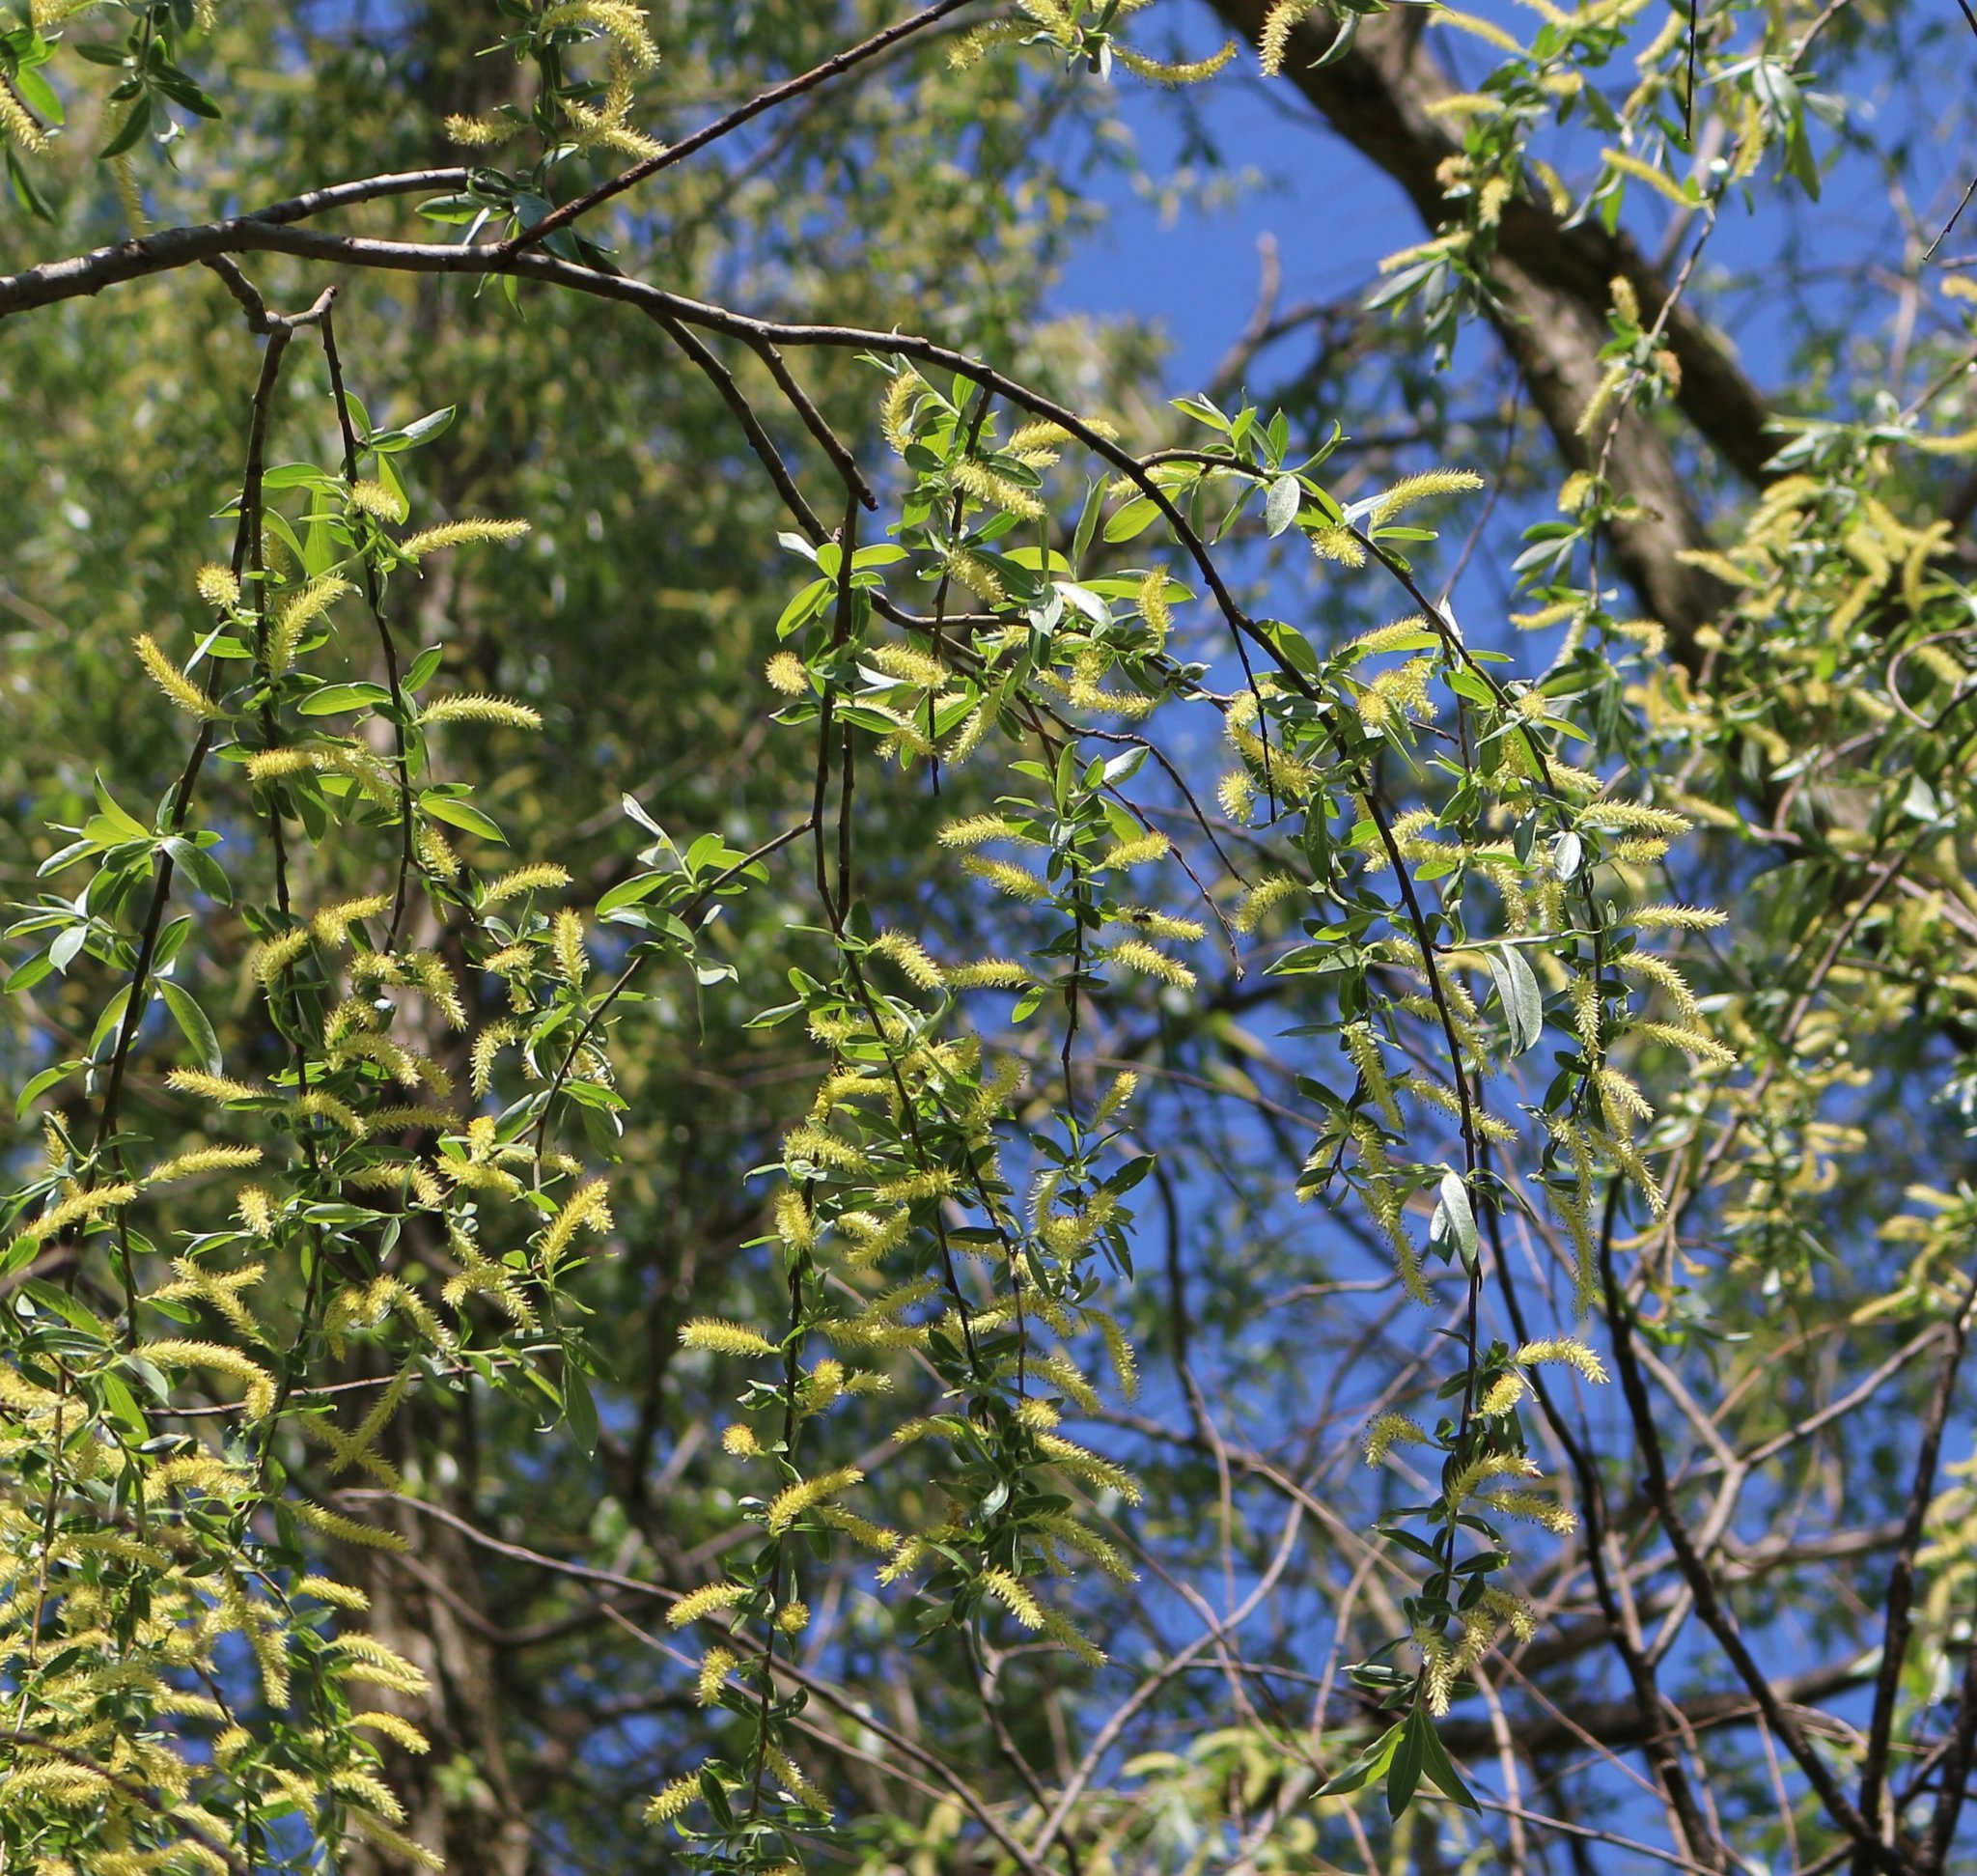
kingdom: Plantae
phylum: Tracheophyta
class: Magnoliopsida
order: Malpighiales
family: Salicaceae
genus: Salix
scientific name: Salix alba
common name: White willow
